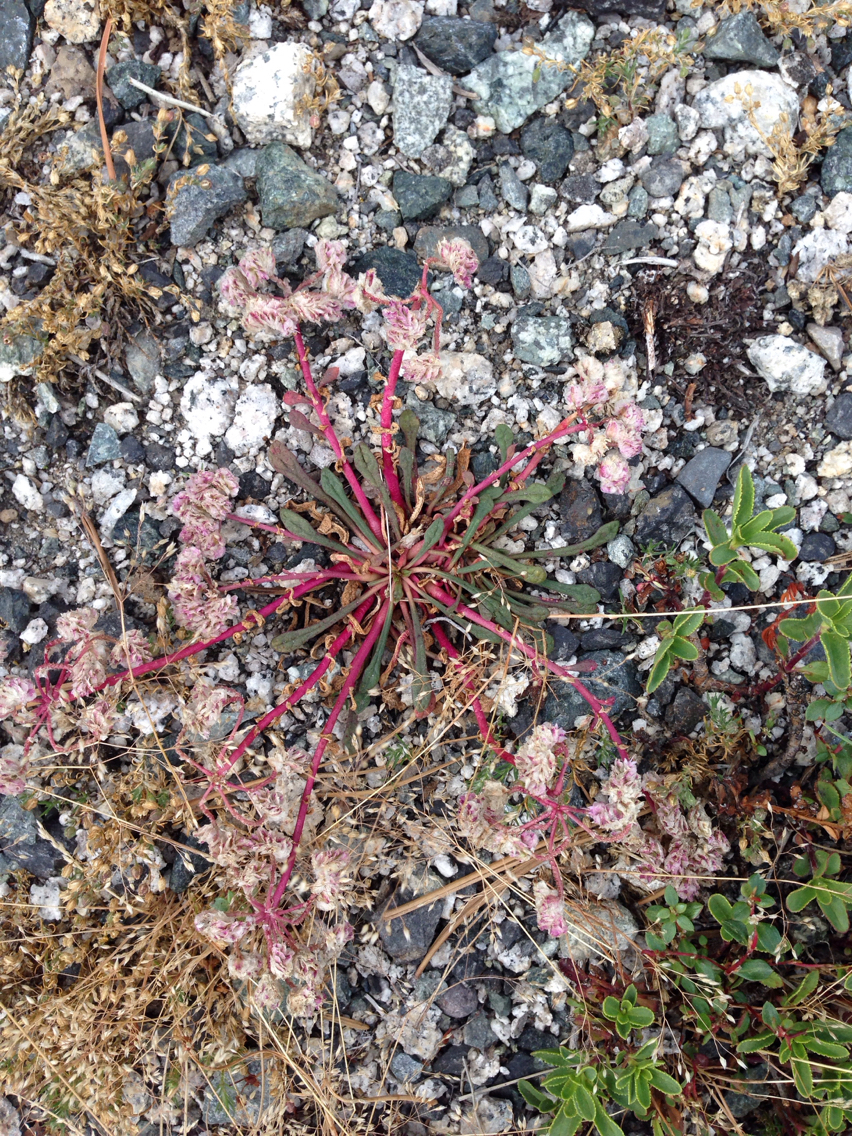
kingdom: Plantae
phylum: Tracheophyta
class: Magnoliopsida
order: Caryophyllales
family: Montiaceae
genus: Calyptridium
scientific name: Calyptridium monospermum
